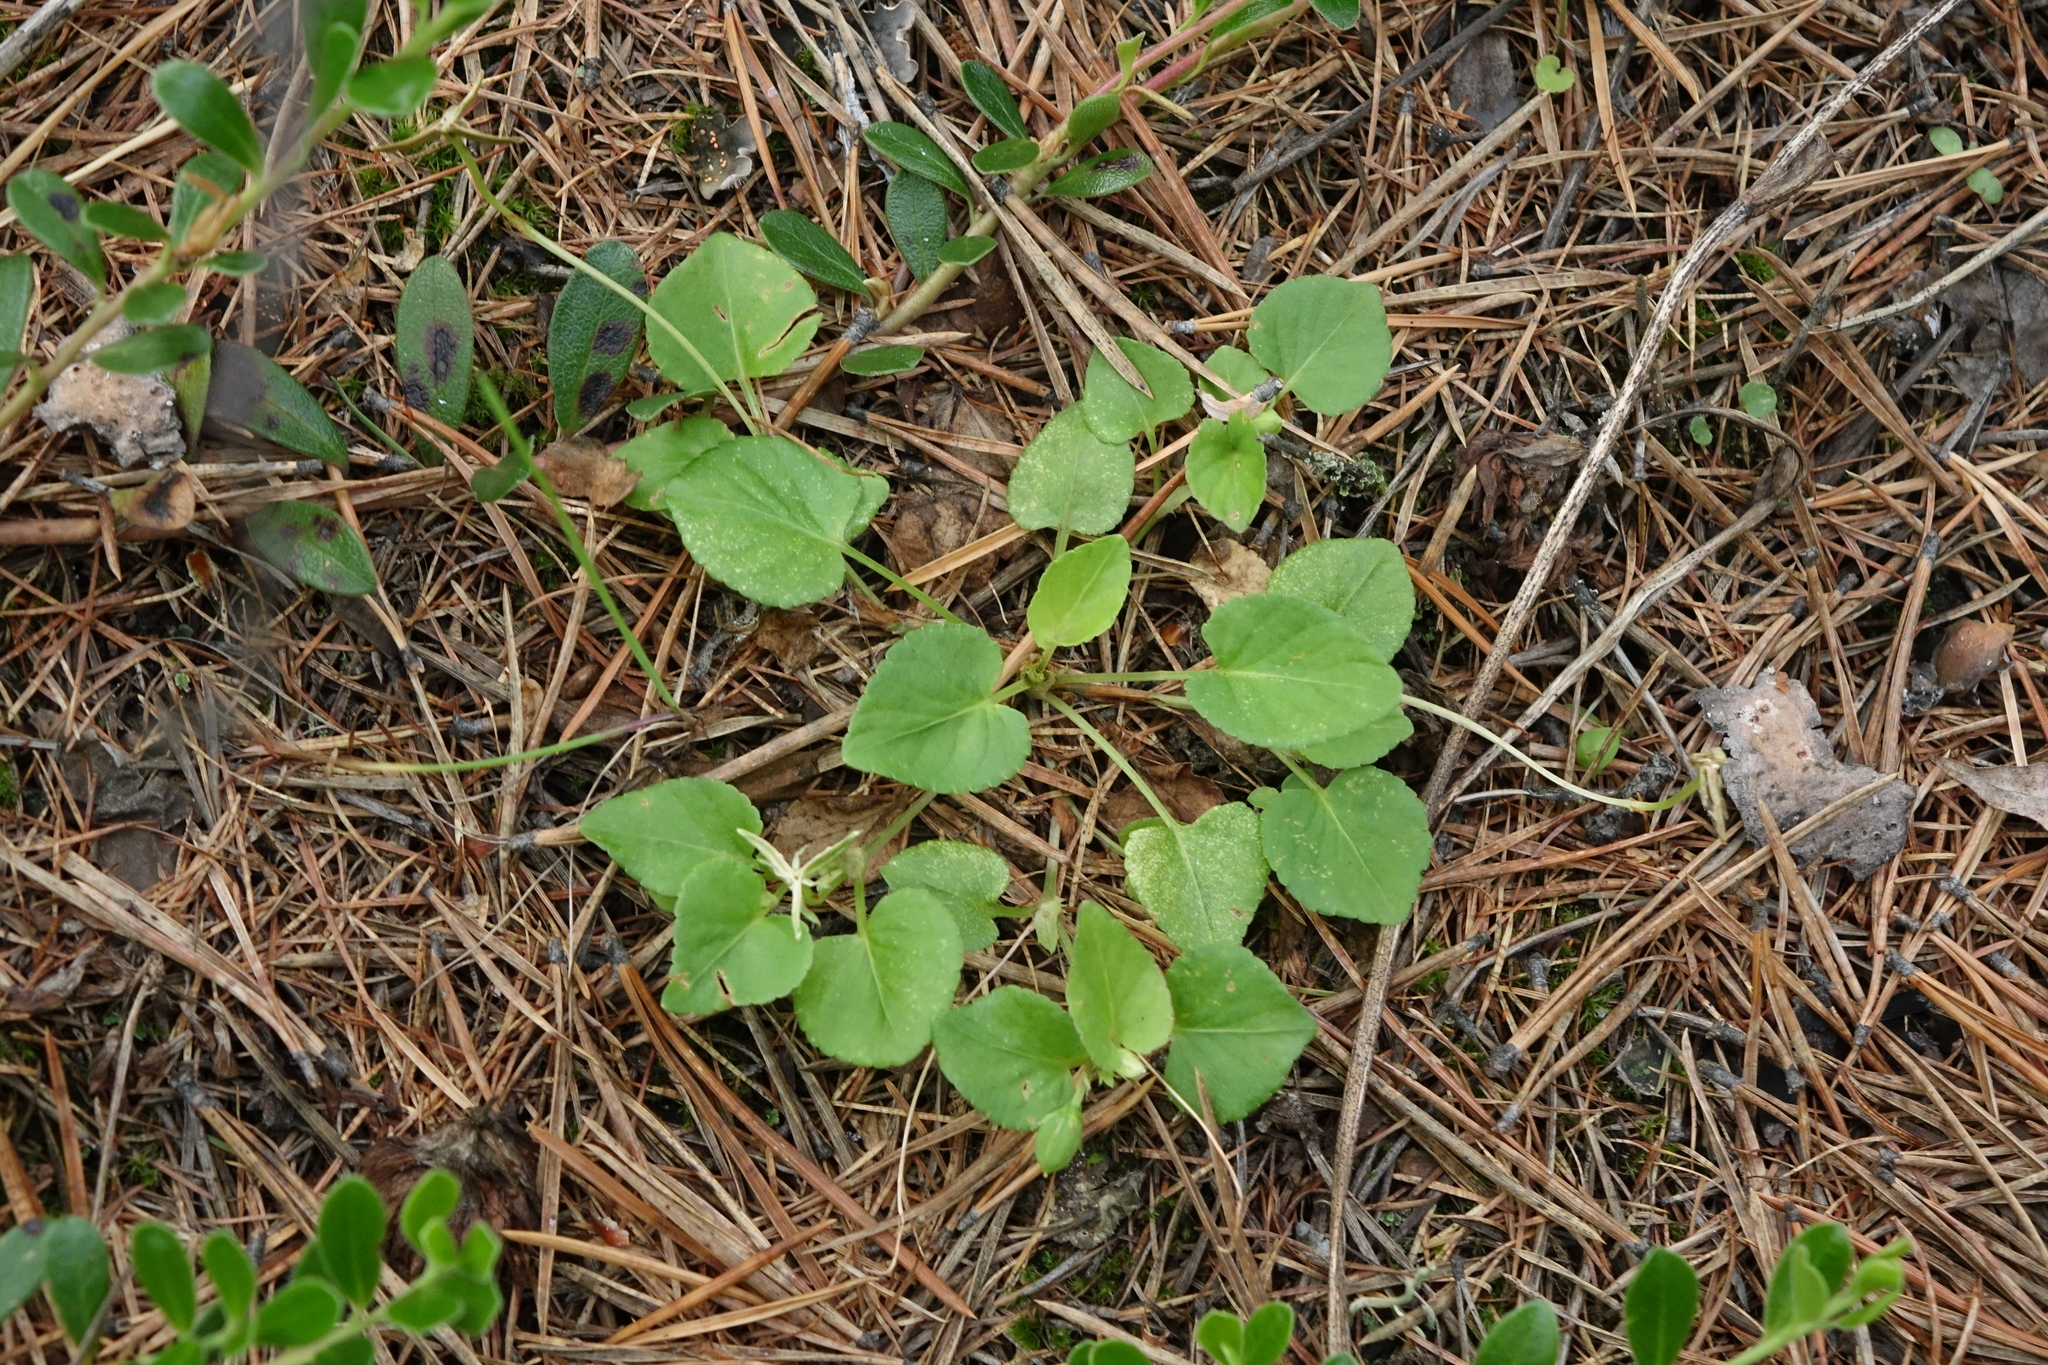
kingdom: Plantae
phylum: Tracheophyta
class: Magnoliopsida
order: Malpighiales
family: Violaceae
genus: Viola
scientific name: Viola rupestris
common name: Teesdale violet
